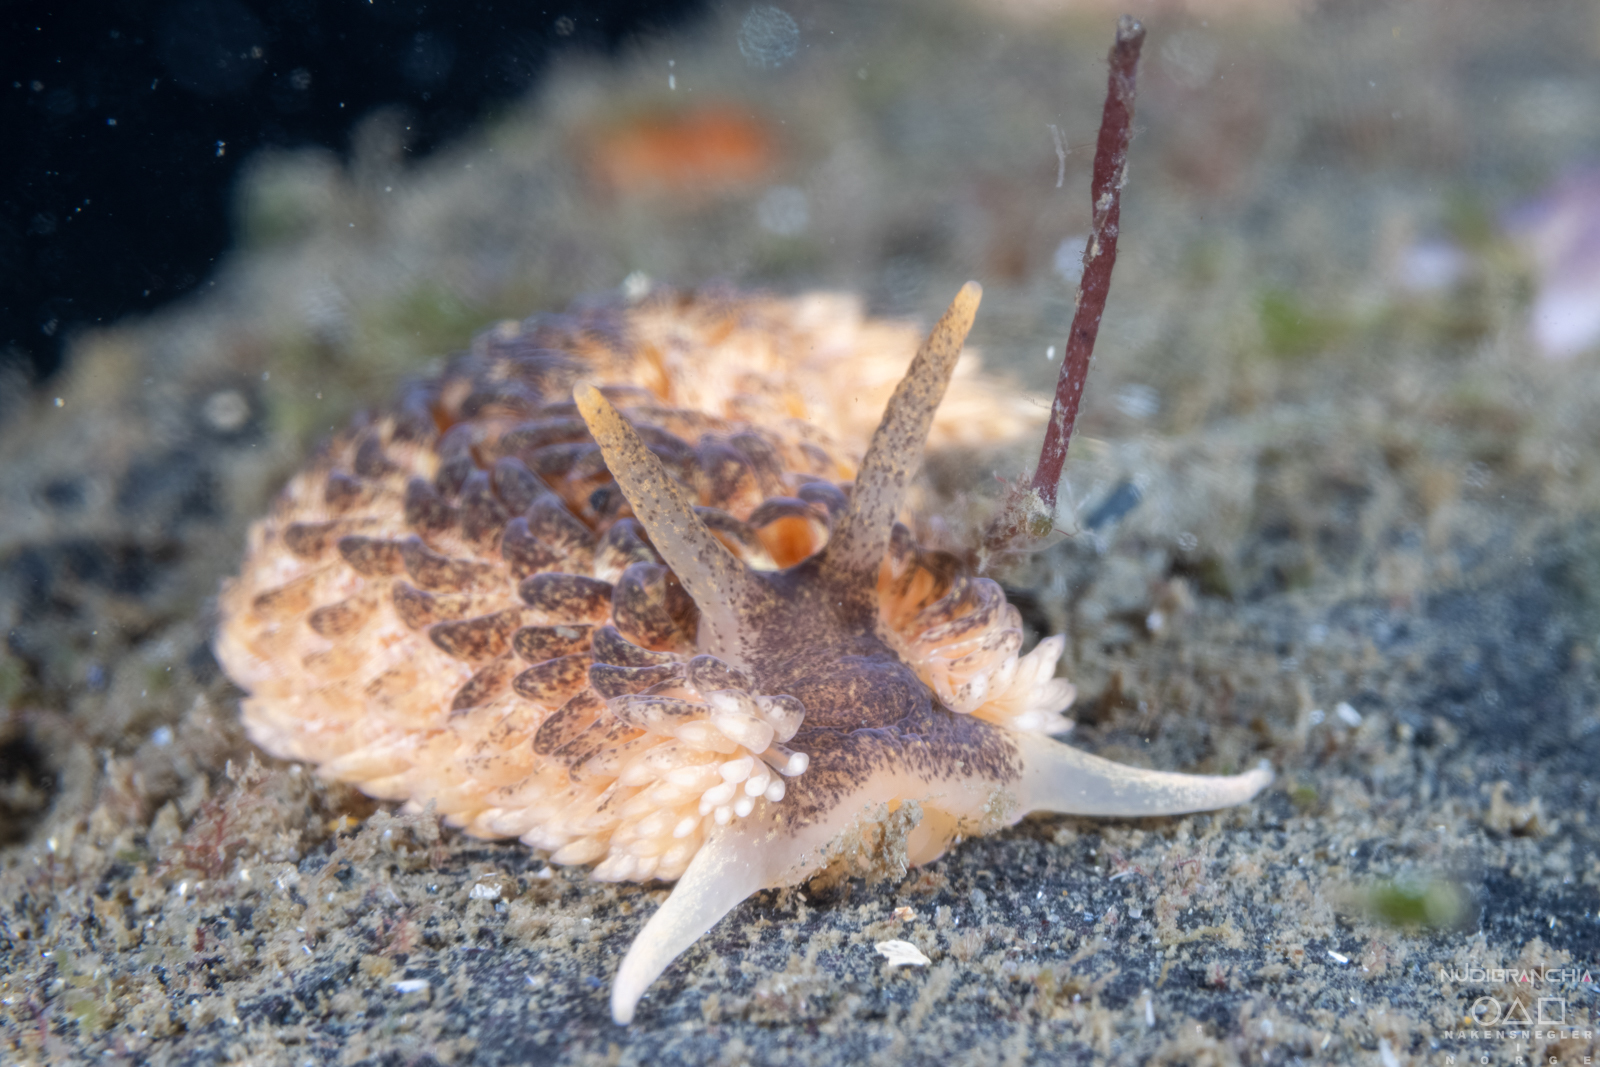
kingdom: Animalia
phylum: Mollusca
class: Gastropoda
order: Nudibranchia
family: Aeolidiidae
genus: Aeolidia
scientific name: Aeolidia papillosa
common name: Common grey sea slug
